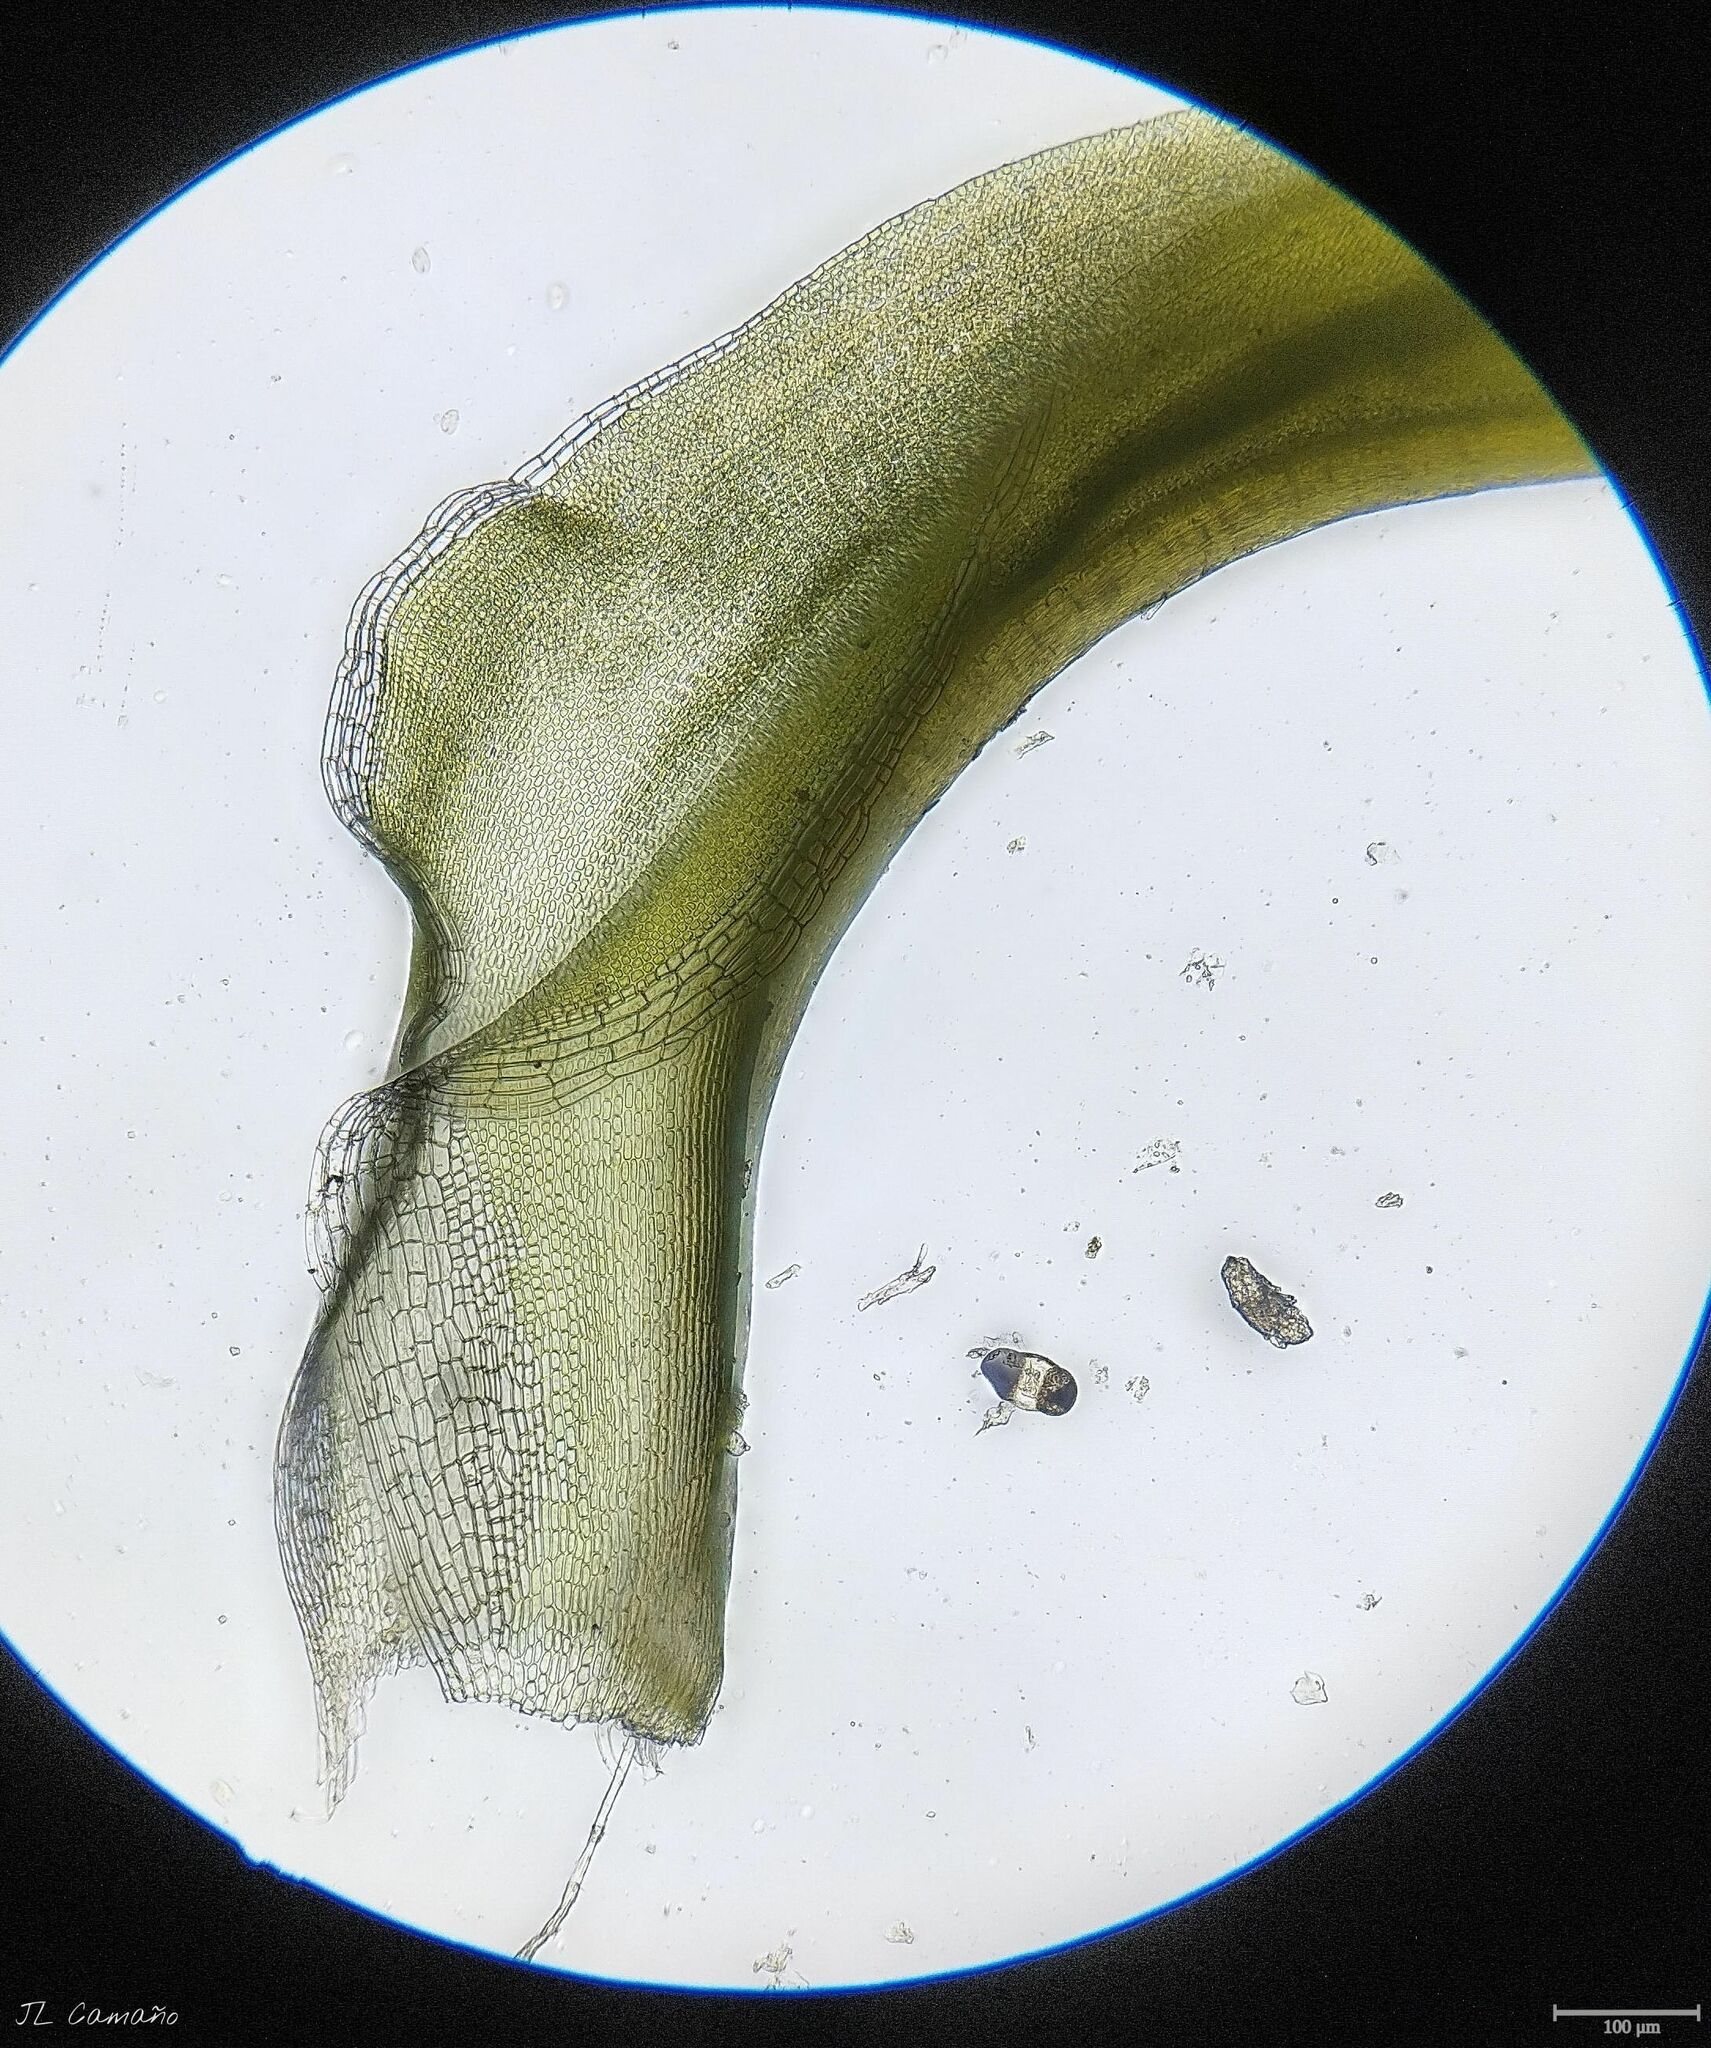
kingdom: Plantae
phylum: Bryophyta
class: Bryopsida
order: Pottiales
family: Pottiaceae
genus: Pleurochaete
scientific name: Pleurochaete squarrosa
